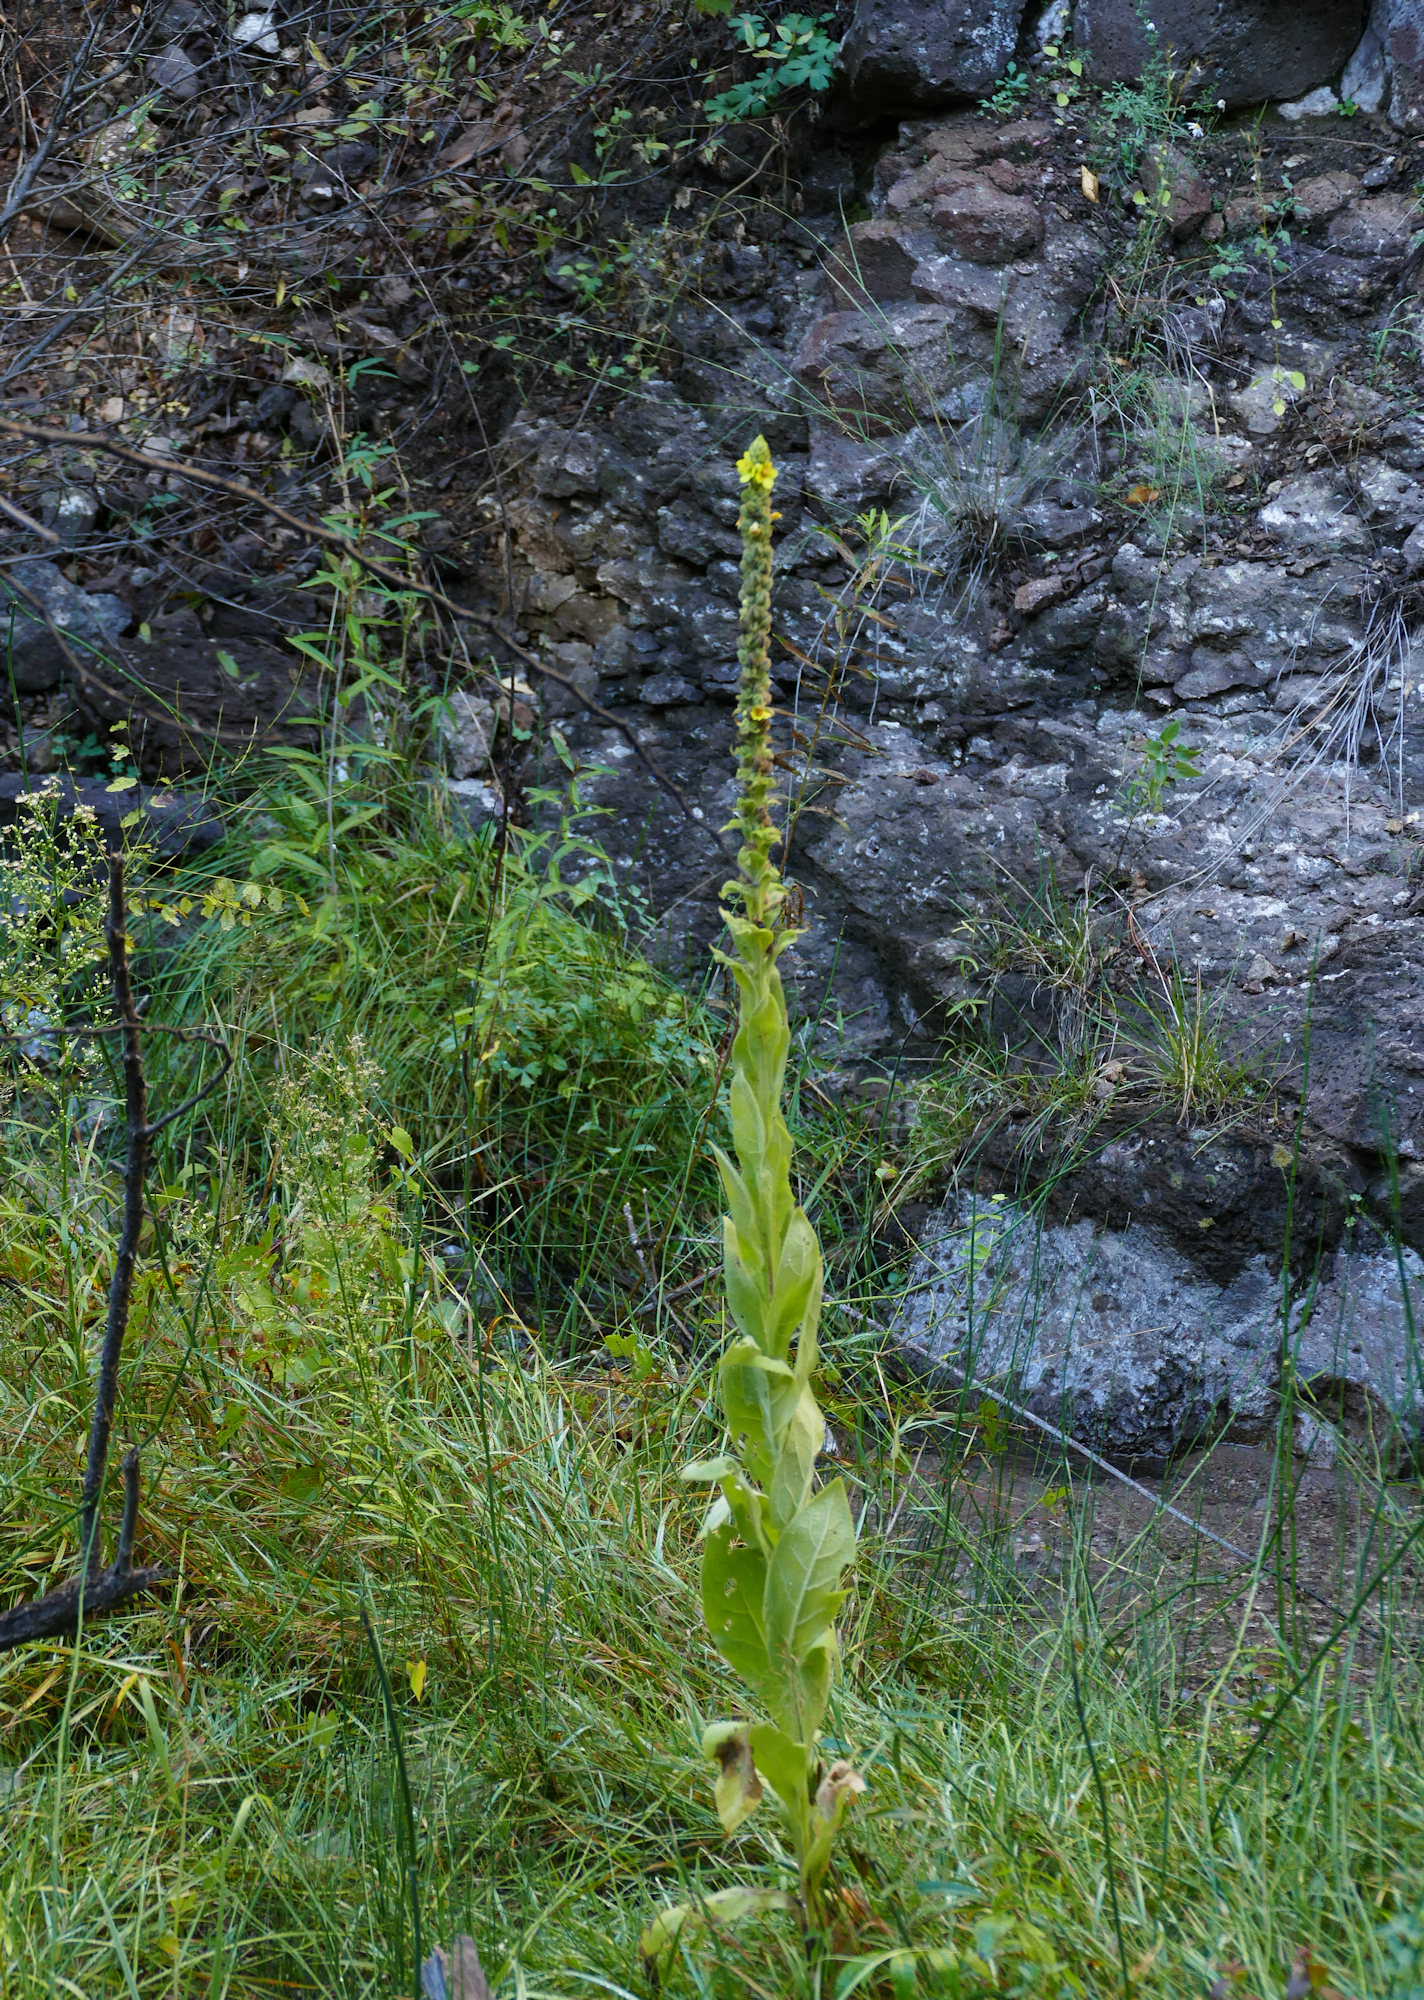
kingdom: Plantae
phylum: Tracheophyta
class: Magnoliopsida
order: Lamiales
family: Scrophulariaceae
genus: Verbascum
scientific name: Verbascum thapsus
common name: Common mullein
